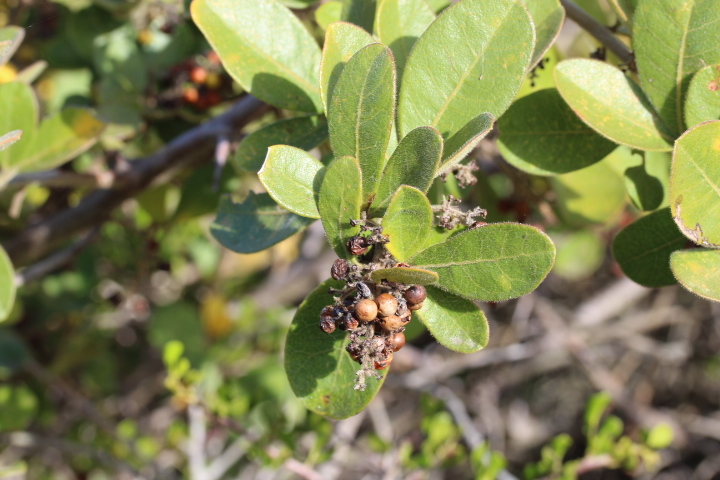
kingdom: Plantae
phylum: Tracheophyta
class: Magnoliopsida
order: Sapindales
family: Anacardiaceae
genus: Searsia
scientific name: Searsia laevigata
